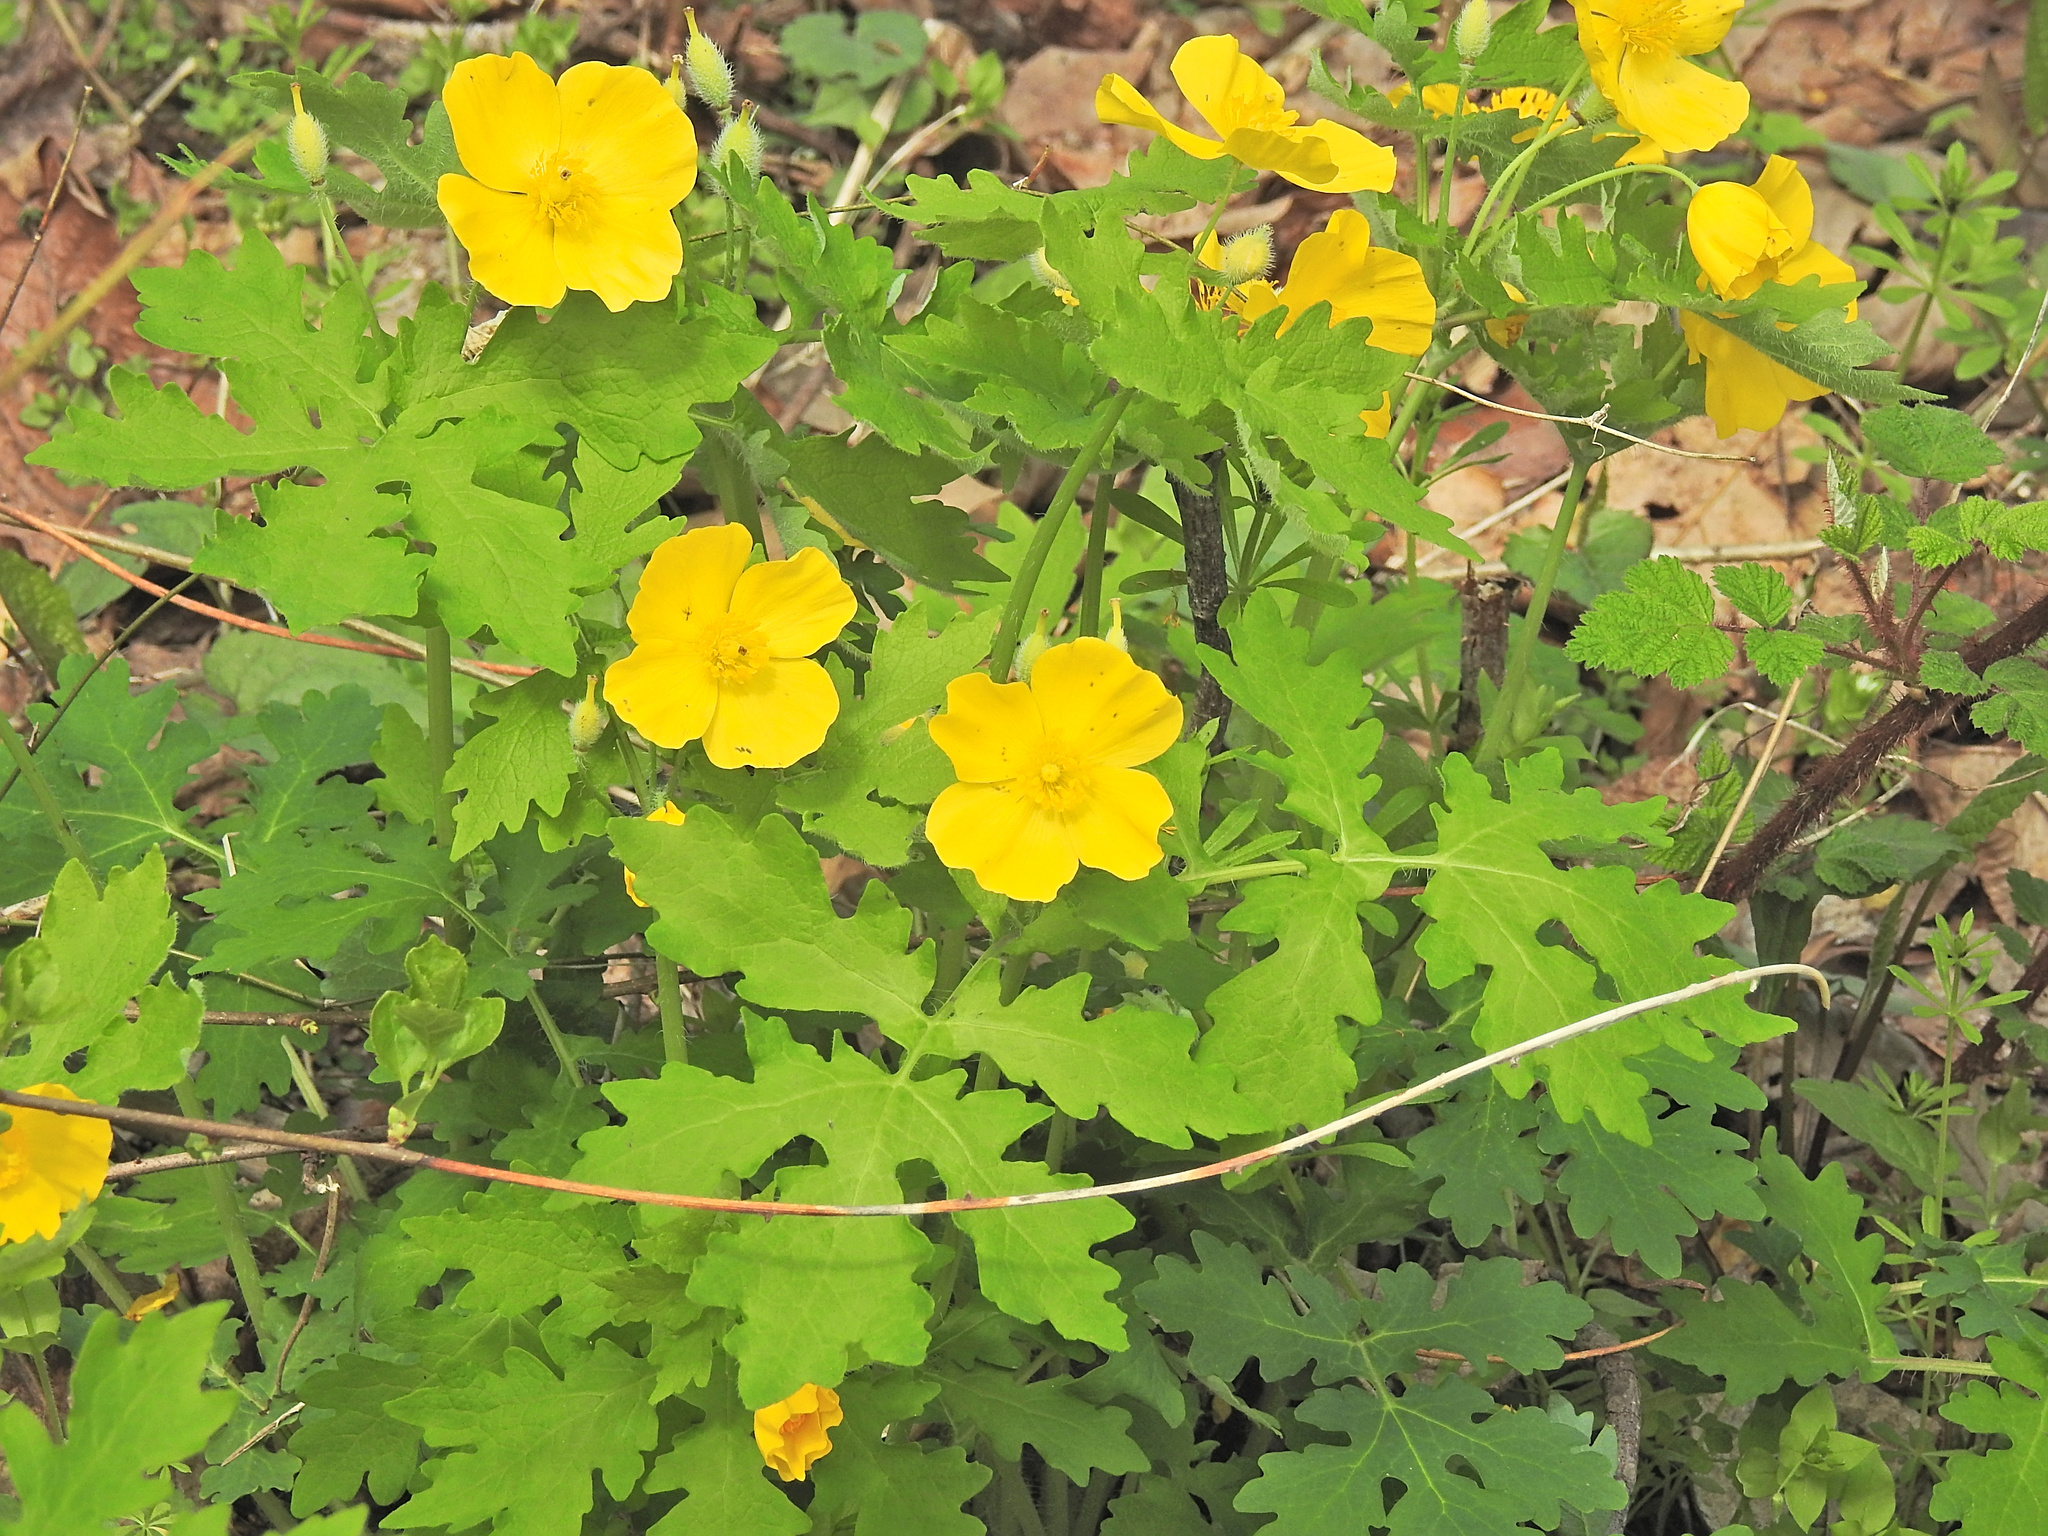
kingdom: Plantae
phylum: Tracheophyta
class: Magnoliopsida
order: Ranunculales
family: Papaveraceae
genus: Stylophorum
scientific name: Stylophorum diphyllum
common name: Celandine poppy
